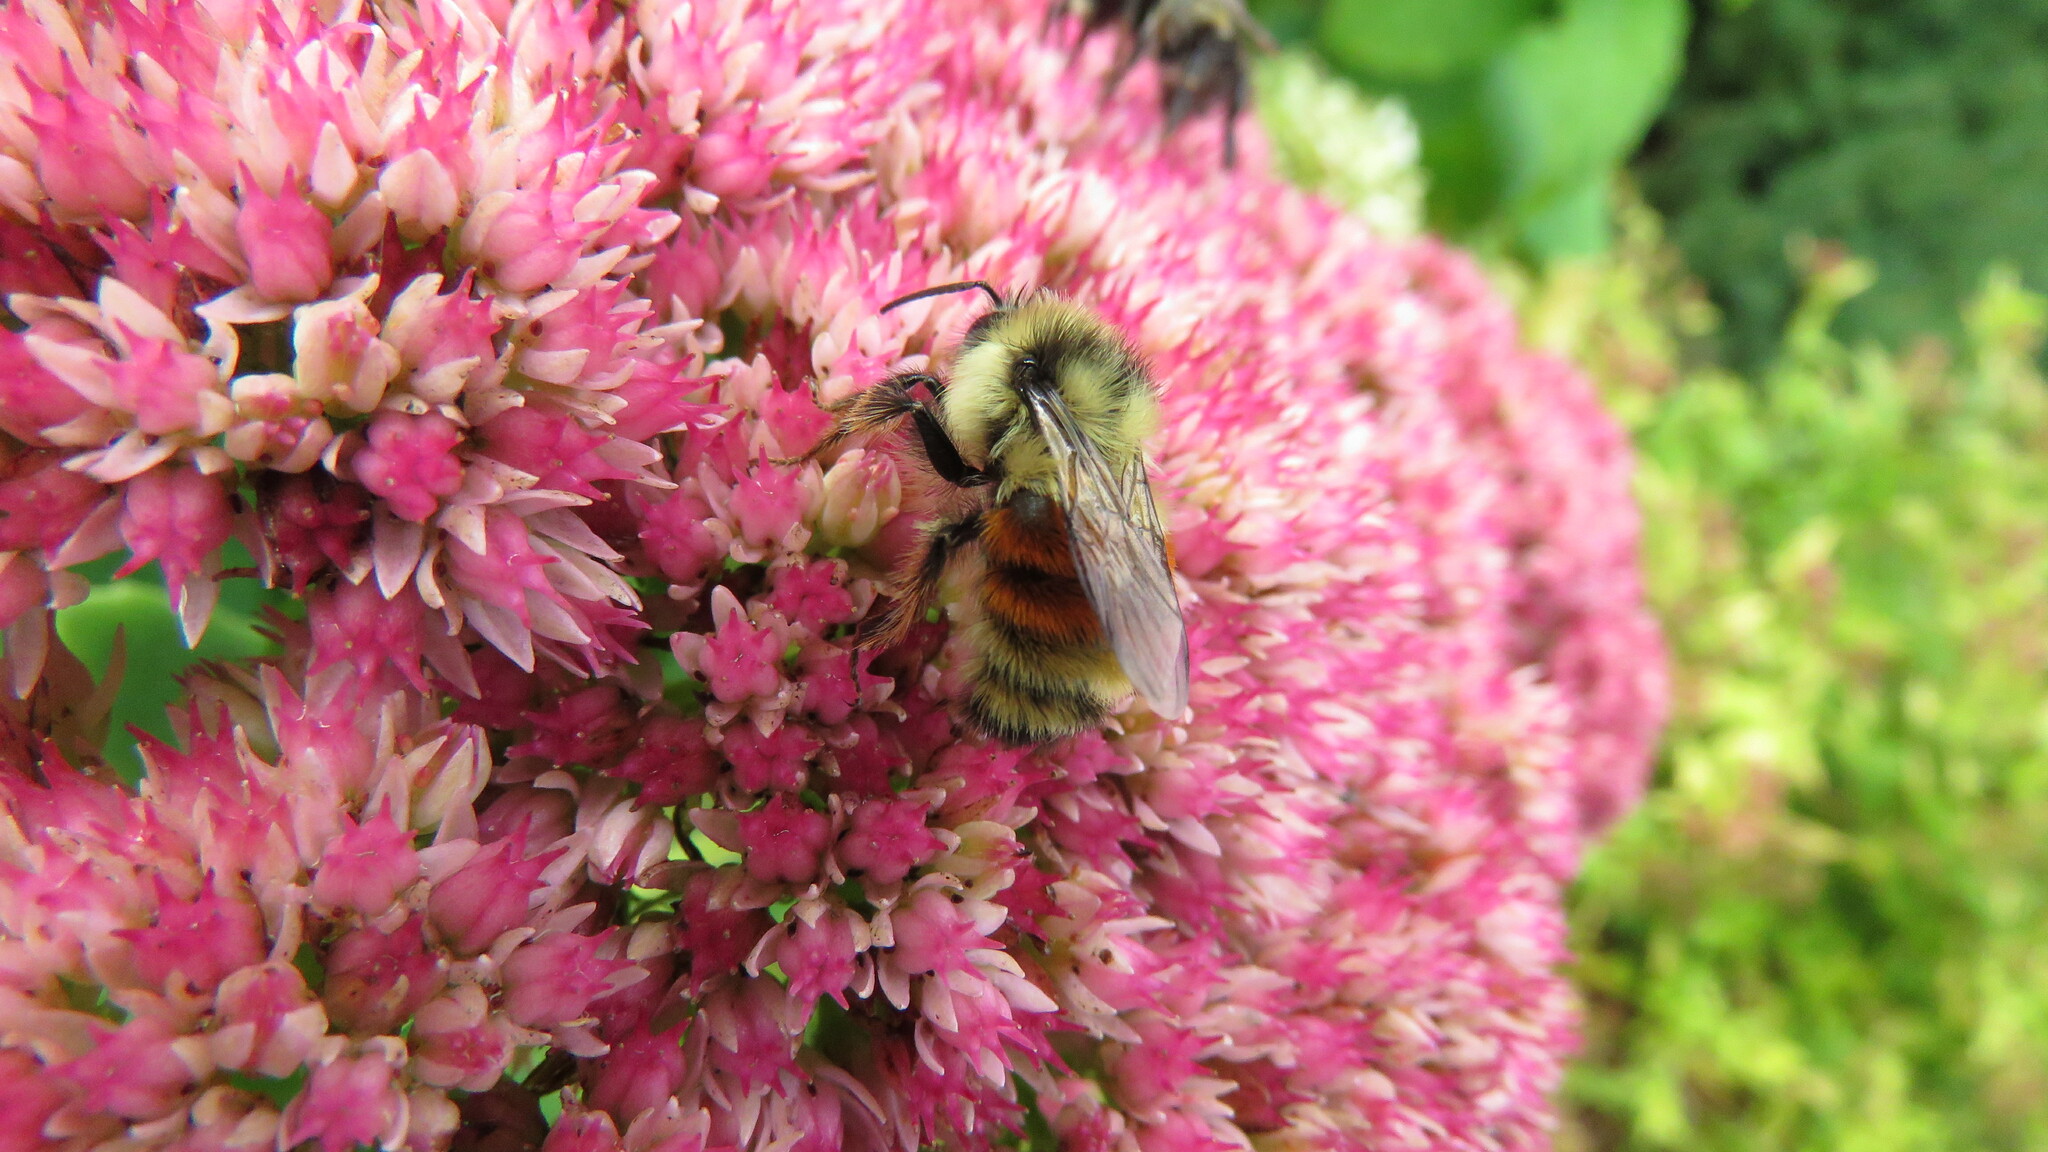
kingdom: Animalia
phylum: Arthropoda
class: Insecta
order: Hymenoptera
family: Apidae
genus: Bombus
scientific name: Bombus ternarius
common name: Tri-colored bumble bee
